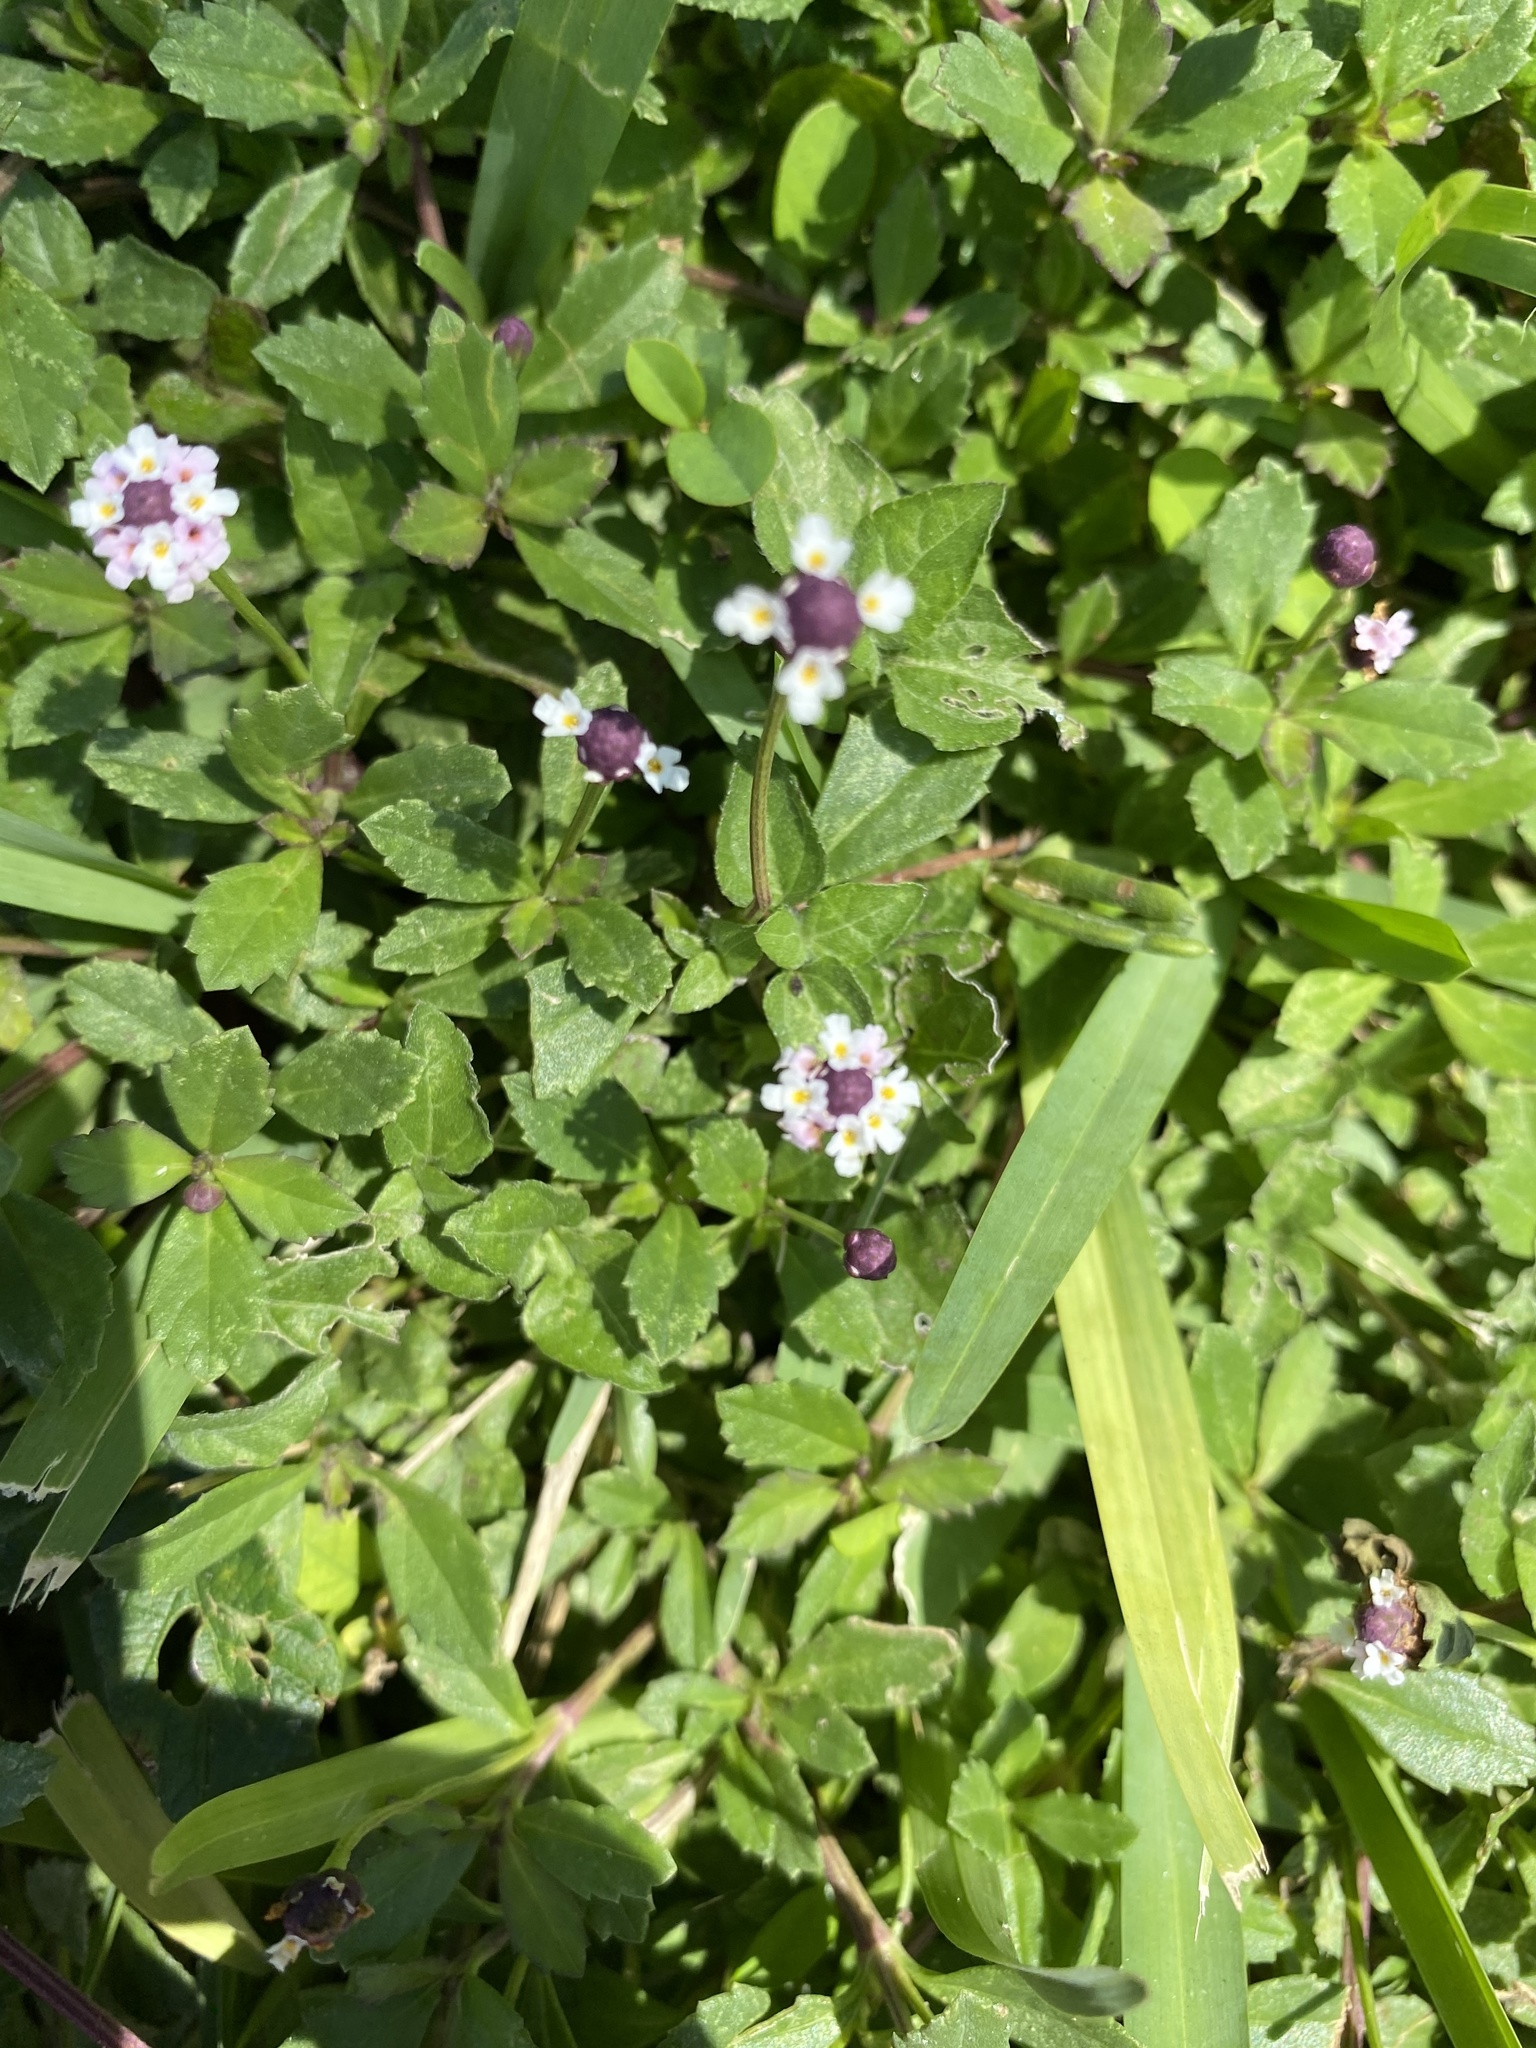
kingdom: Plantae
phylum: Tracheophyta
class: Magnoliopsida
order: Lamiales
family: Verbenaceae
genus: Phyla
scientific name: Phyla nodiflora
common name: Frogfruit
